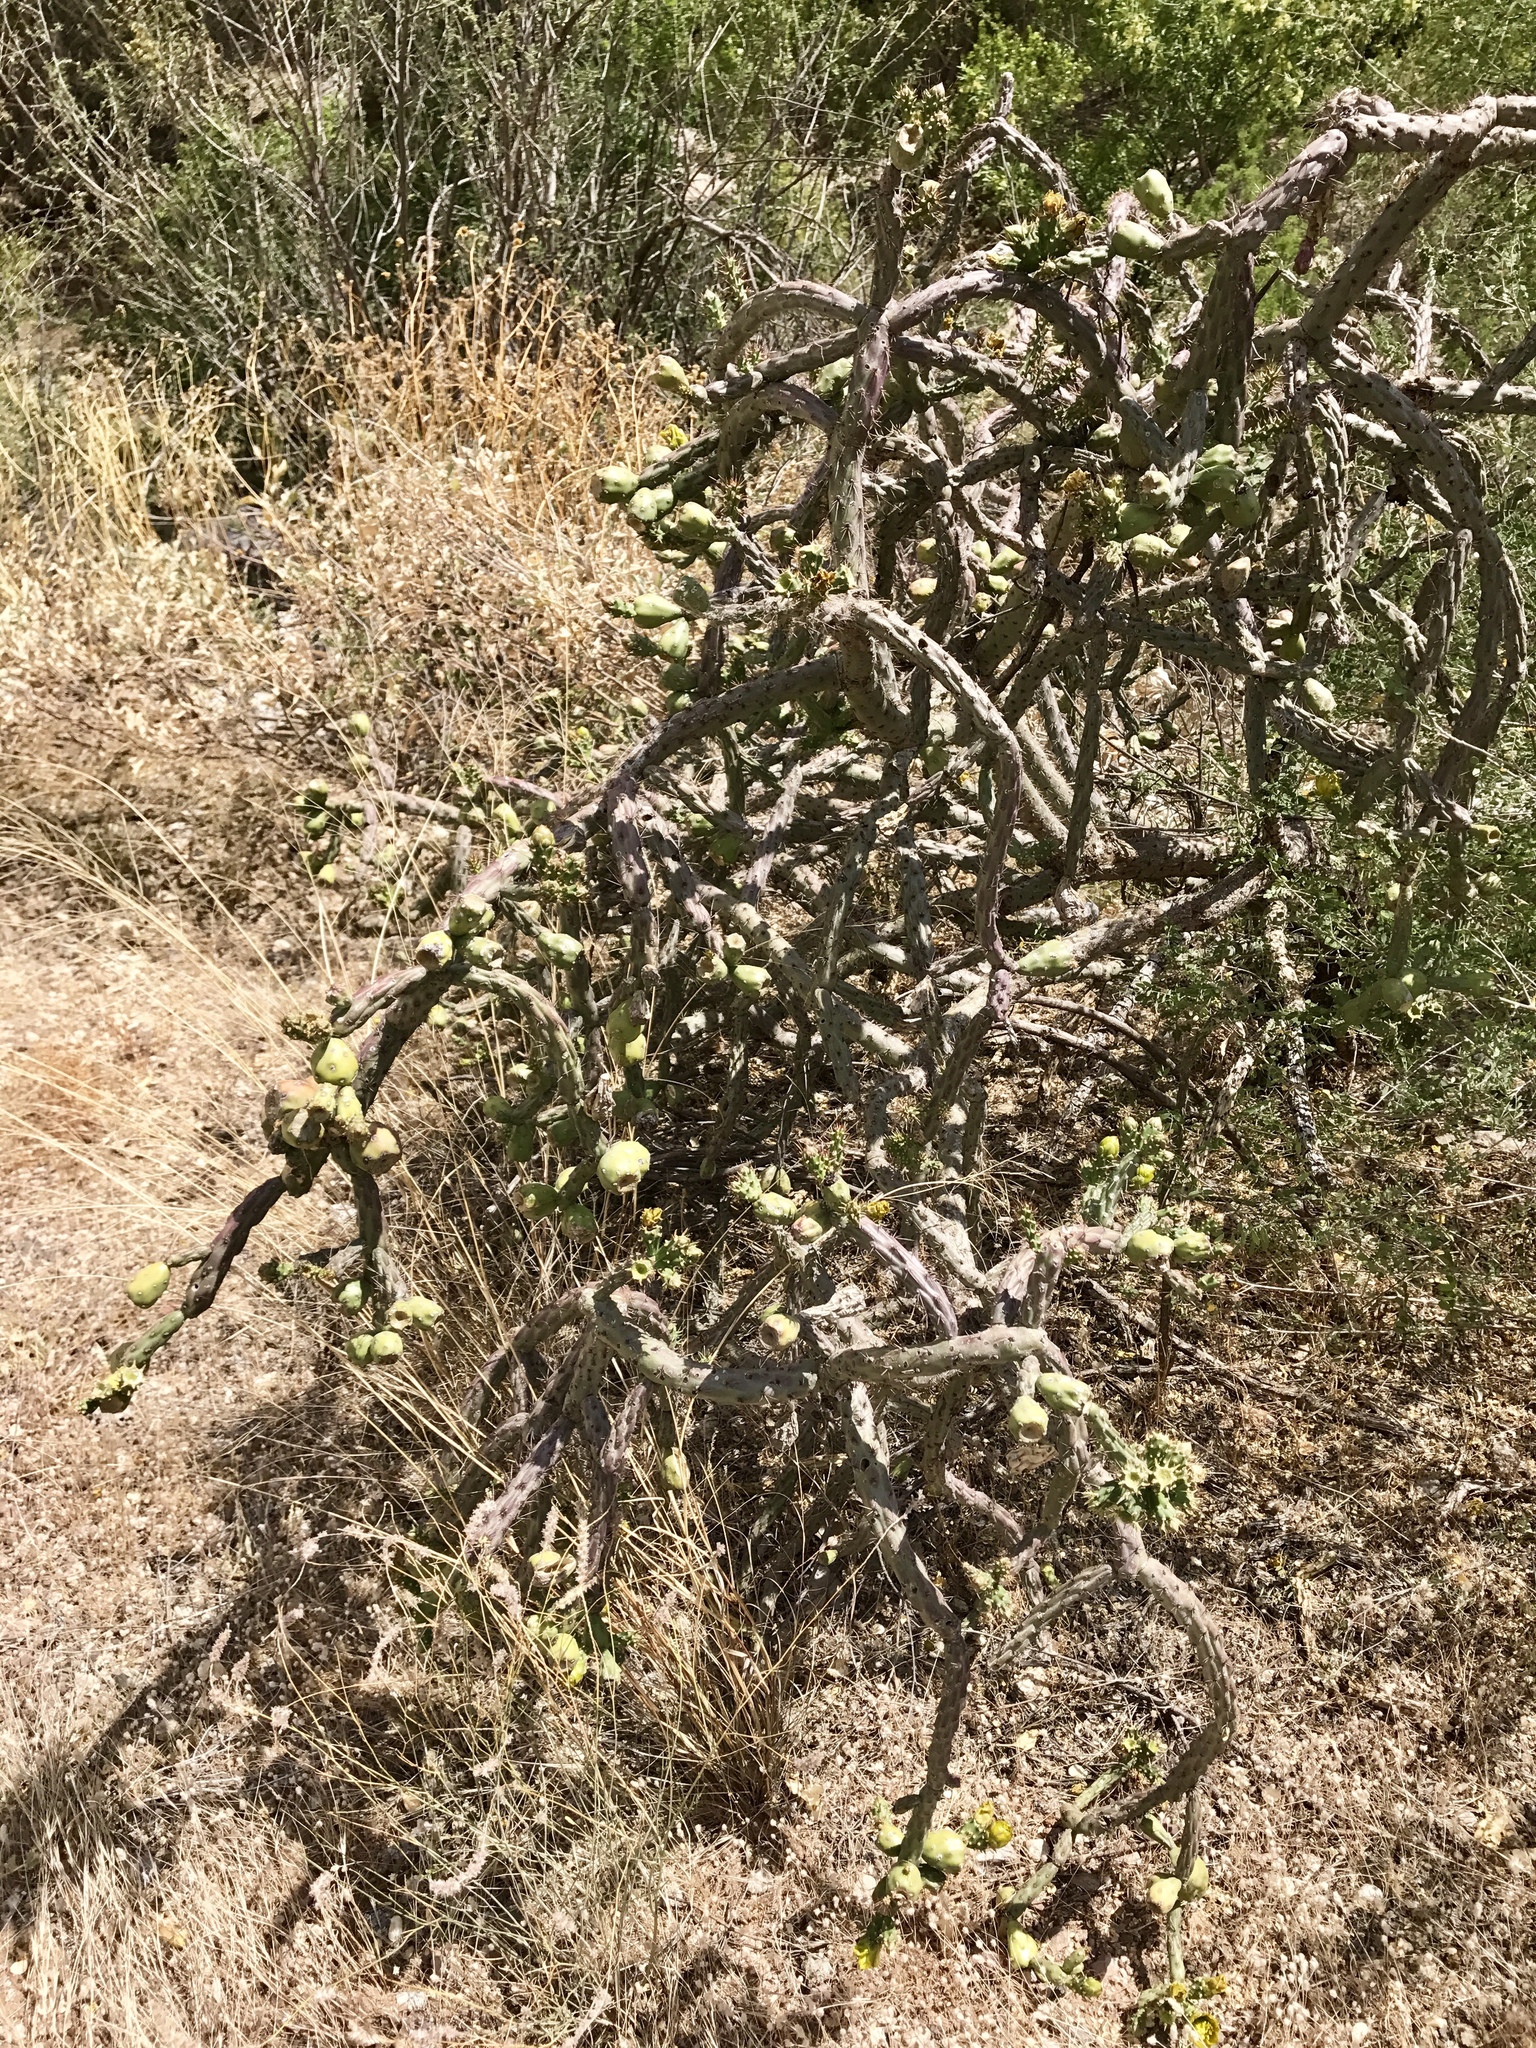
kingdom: Plantae
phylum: Tracheophyta
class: Magnoliopsida
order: Caryophyllales
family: Cactaceae
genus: Cylindropuntia
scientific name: Cylindropuntia thurberi
